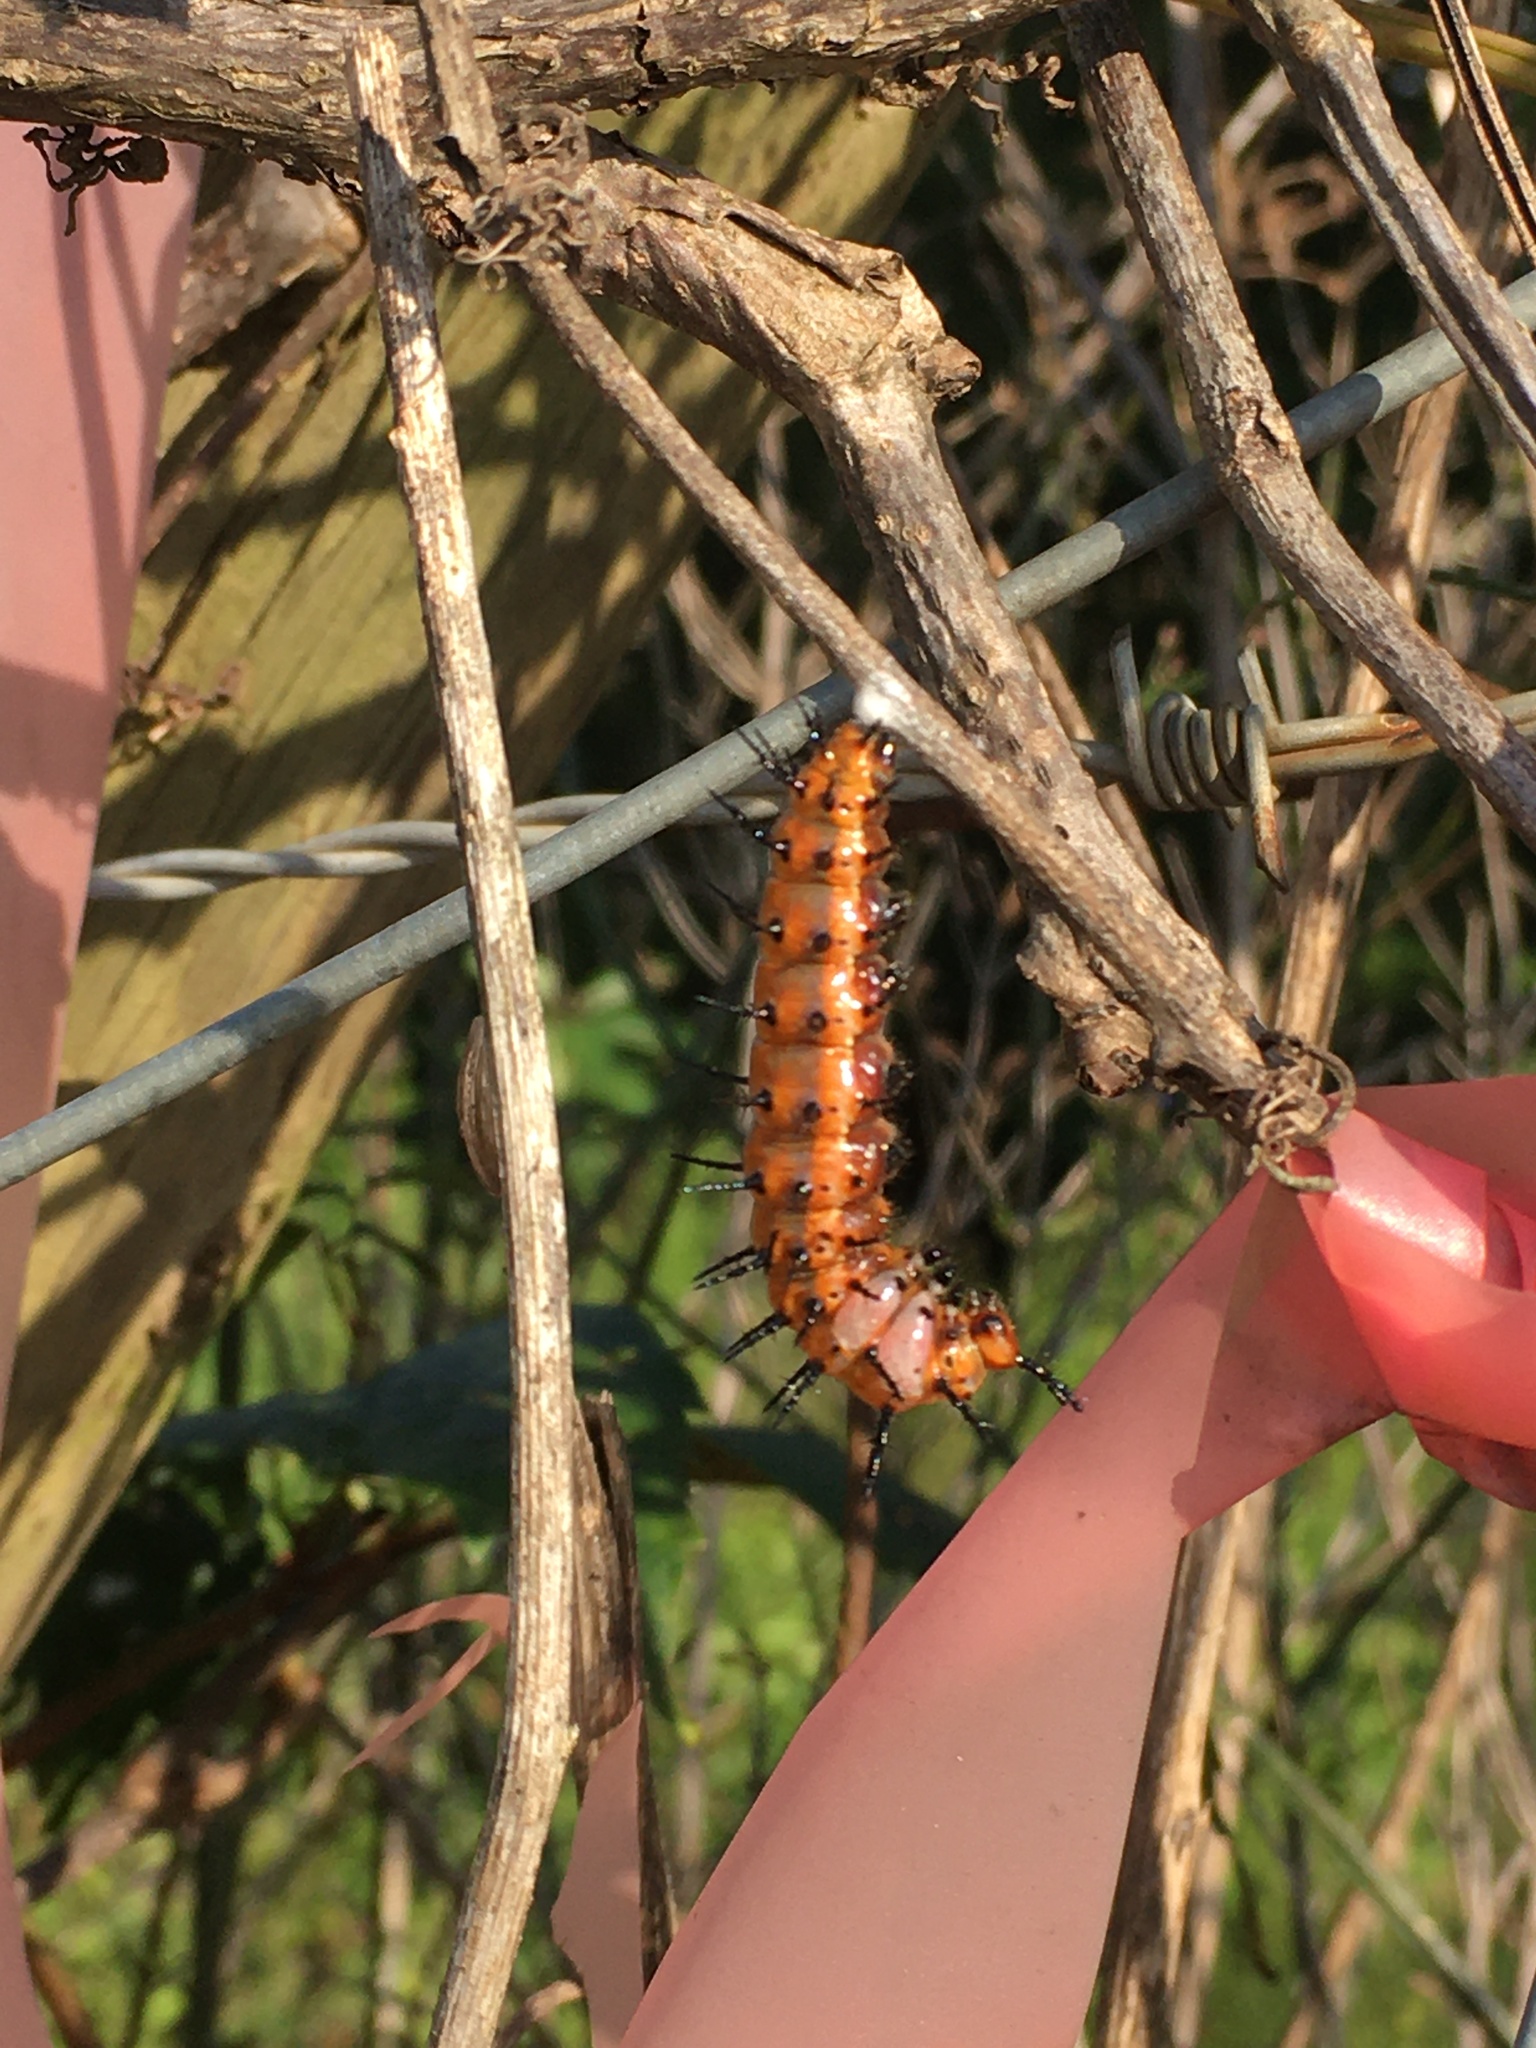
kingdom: Animalia
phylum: Arthropoda
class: Insecta
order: Lepidoptera
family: Nymphalidae
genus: Dione
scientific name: Dione vanillae
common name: Gulf fritillary
